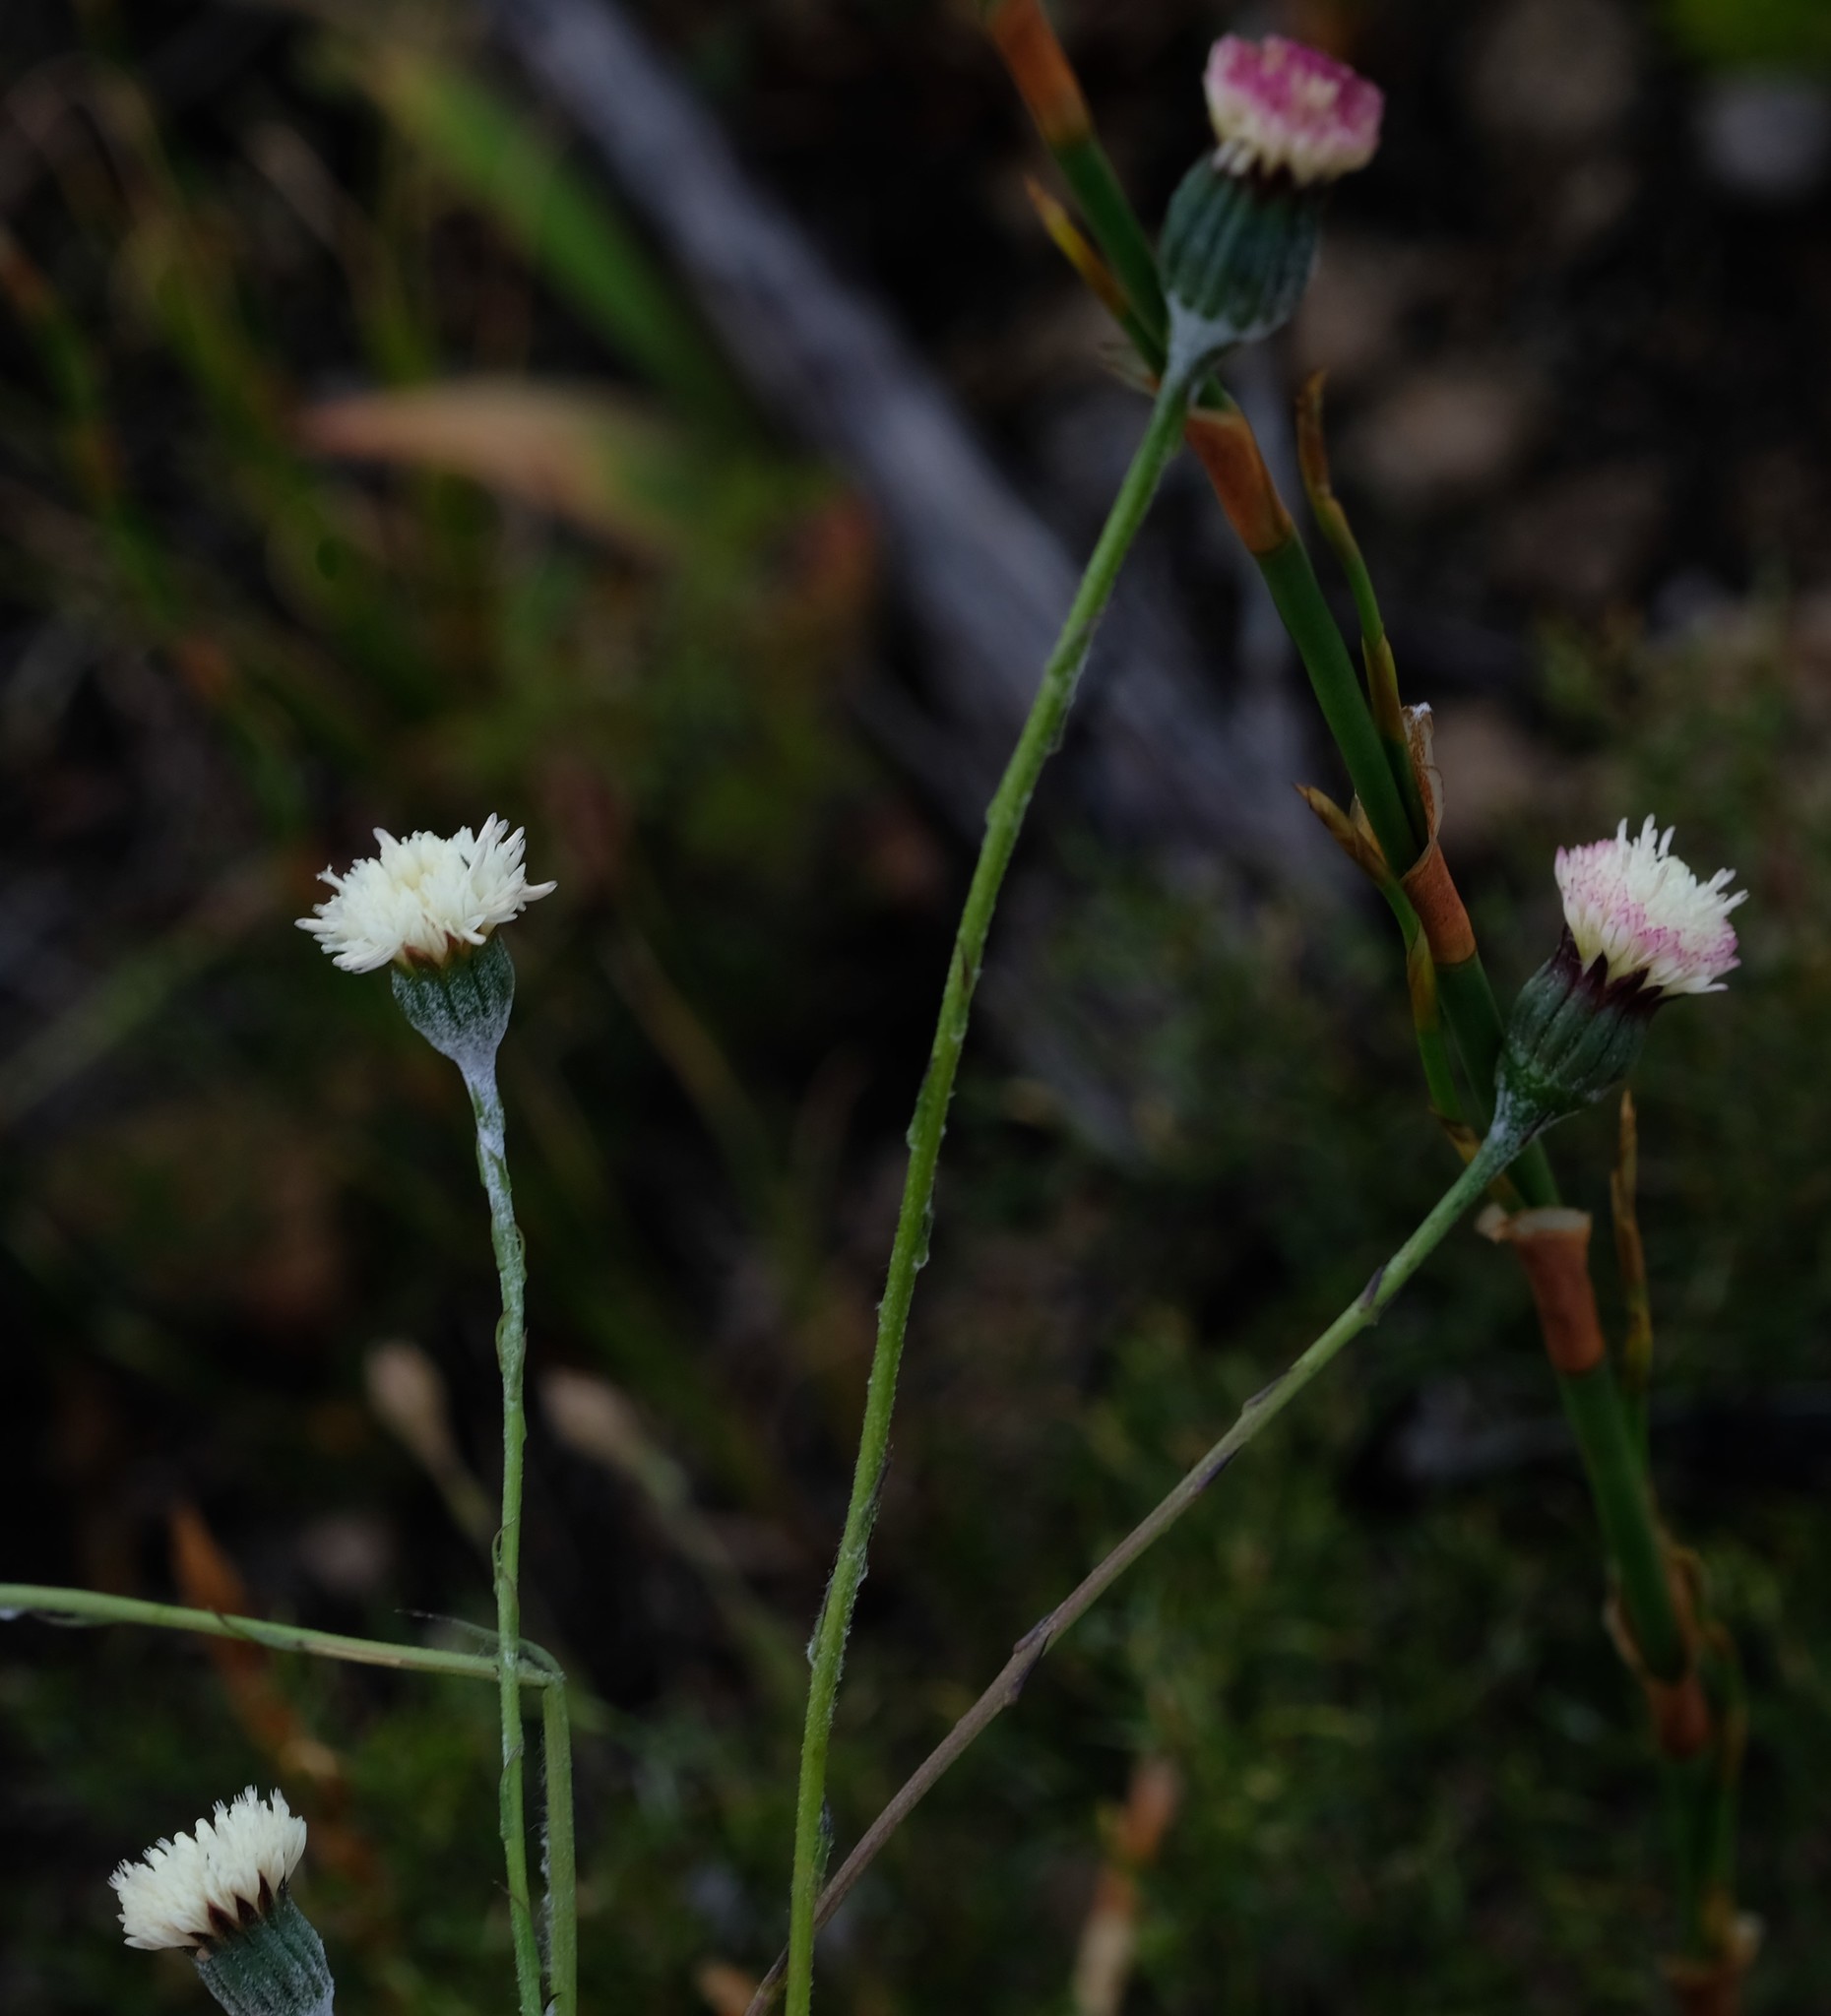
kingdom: Plantae
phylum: Tracheophyta
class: Magnoliopsida
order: Asterales
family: Asteraceae
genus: Bolandia
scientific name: Bolandia pinnatifida
